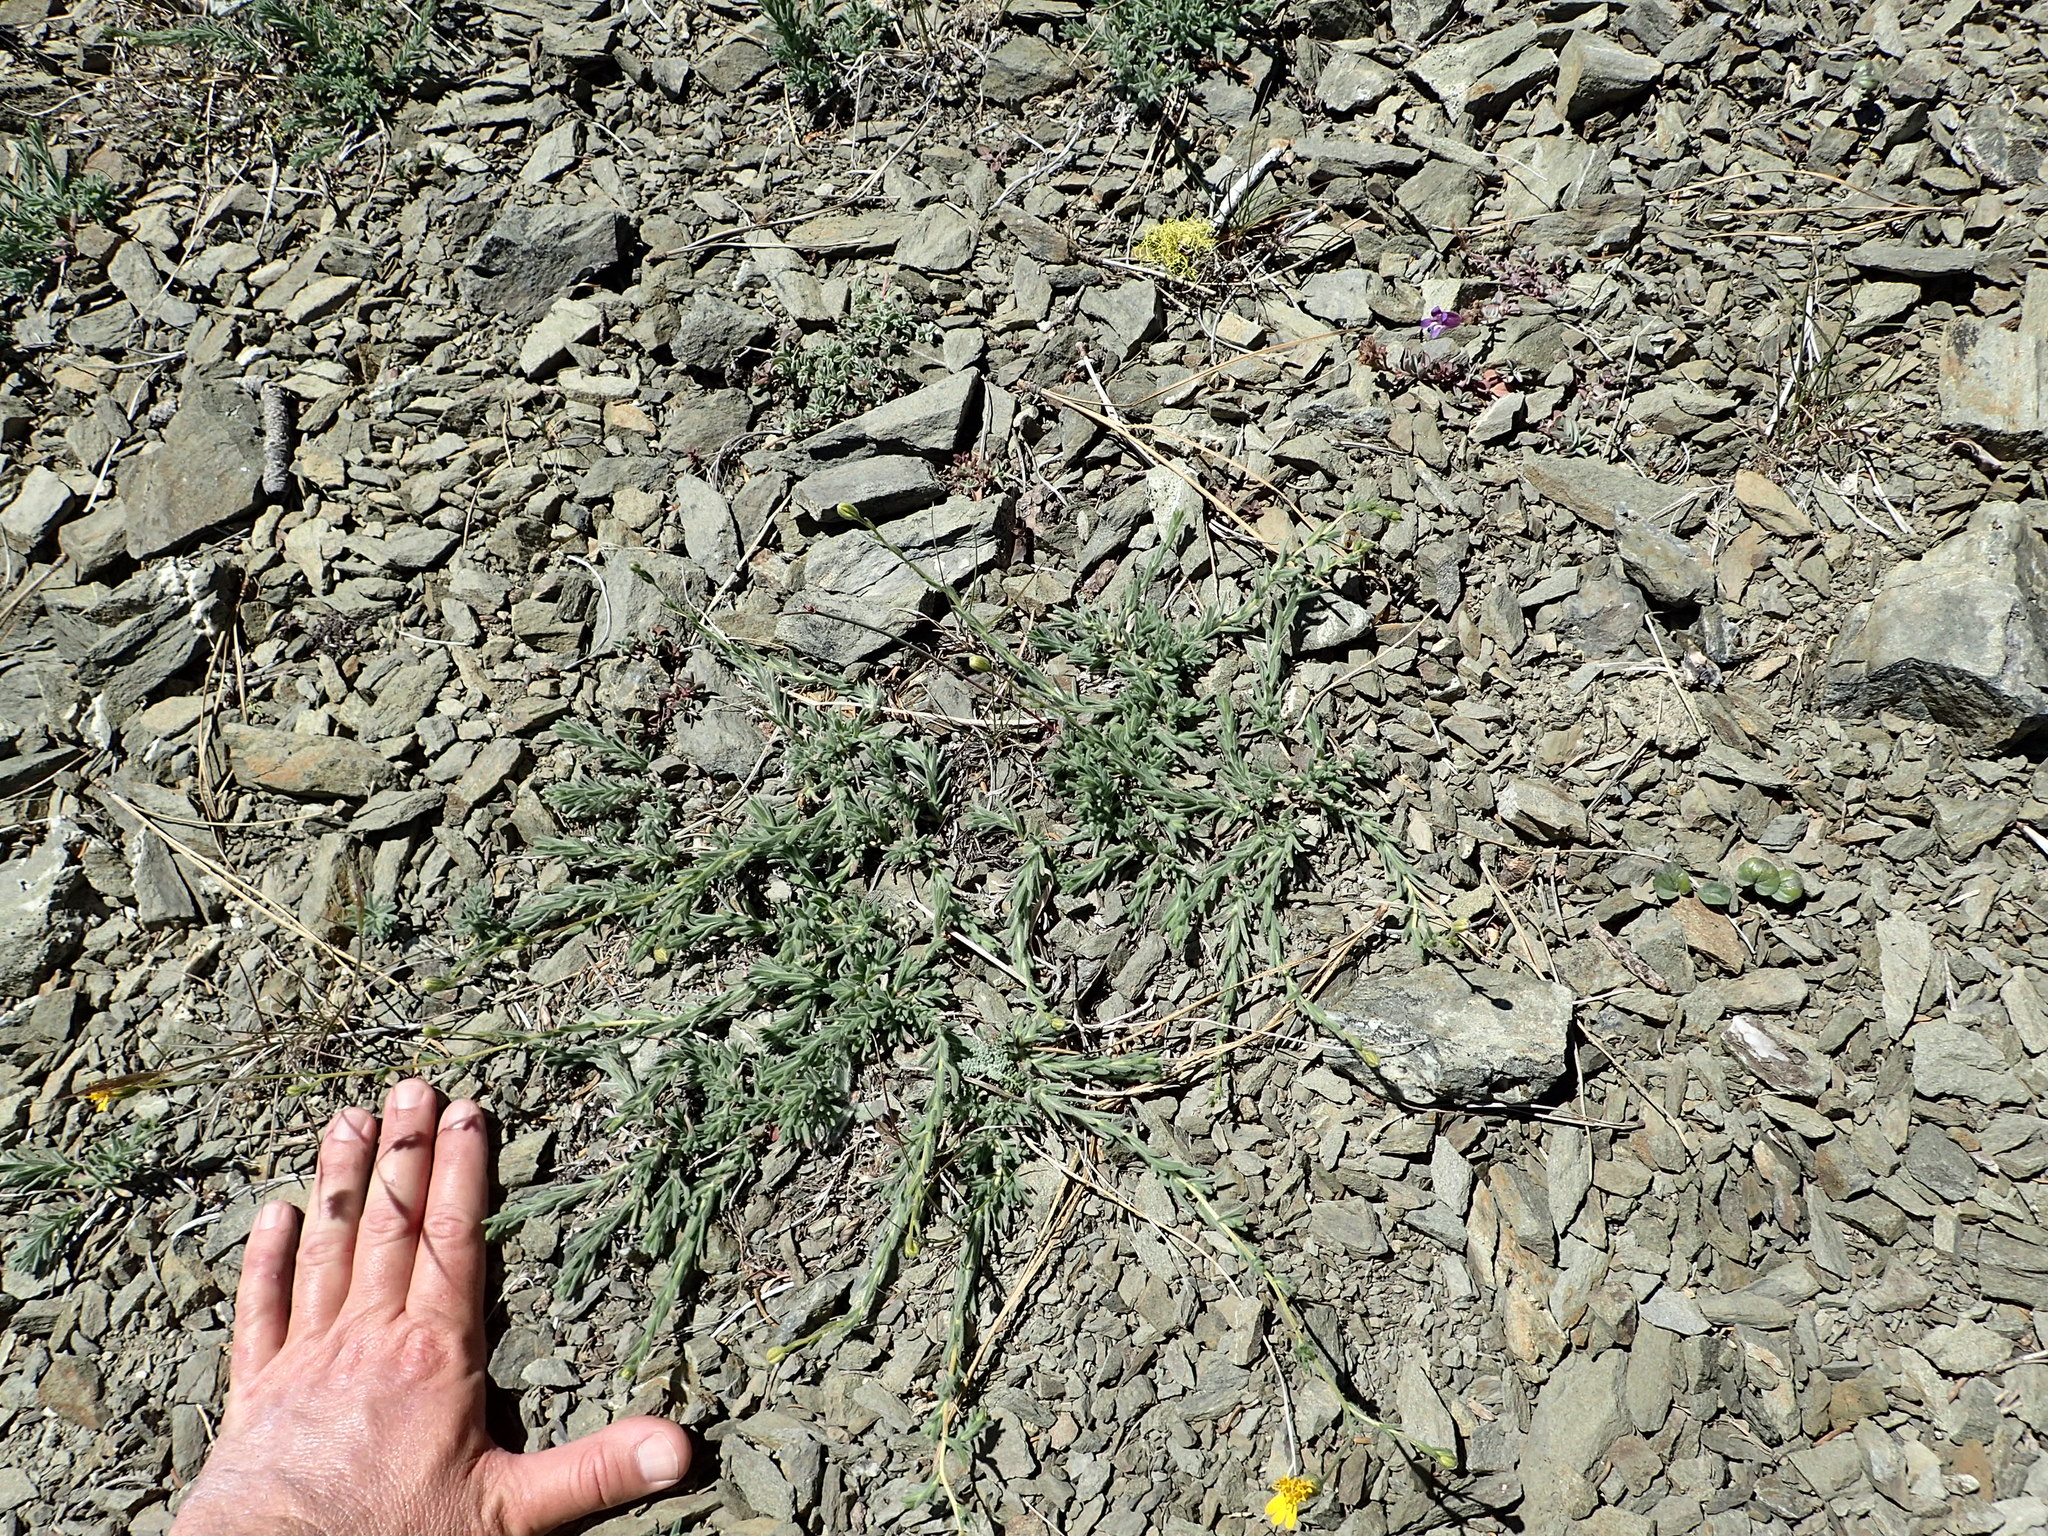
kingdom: Plantae
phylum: Tracheophyta
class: Magnoliopsida
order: Asterales
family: Asteraceae
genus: Anisocarpus
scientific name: Anisocarpus scabridus
